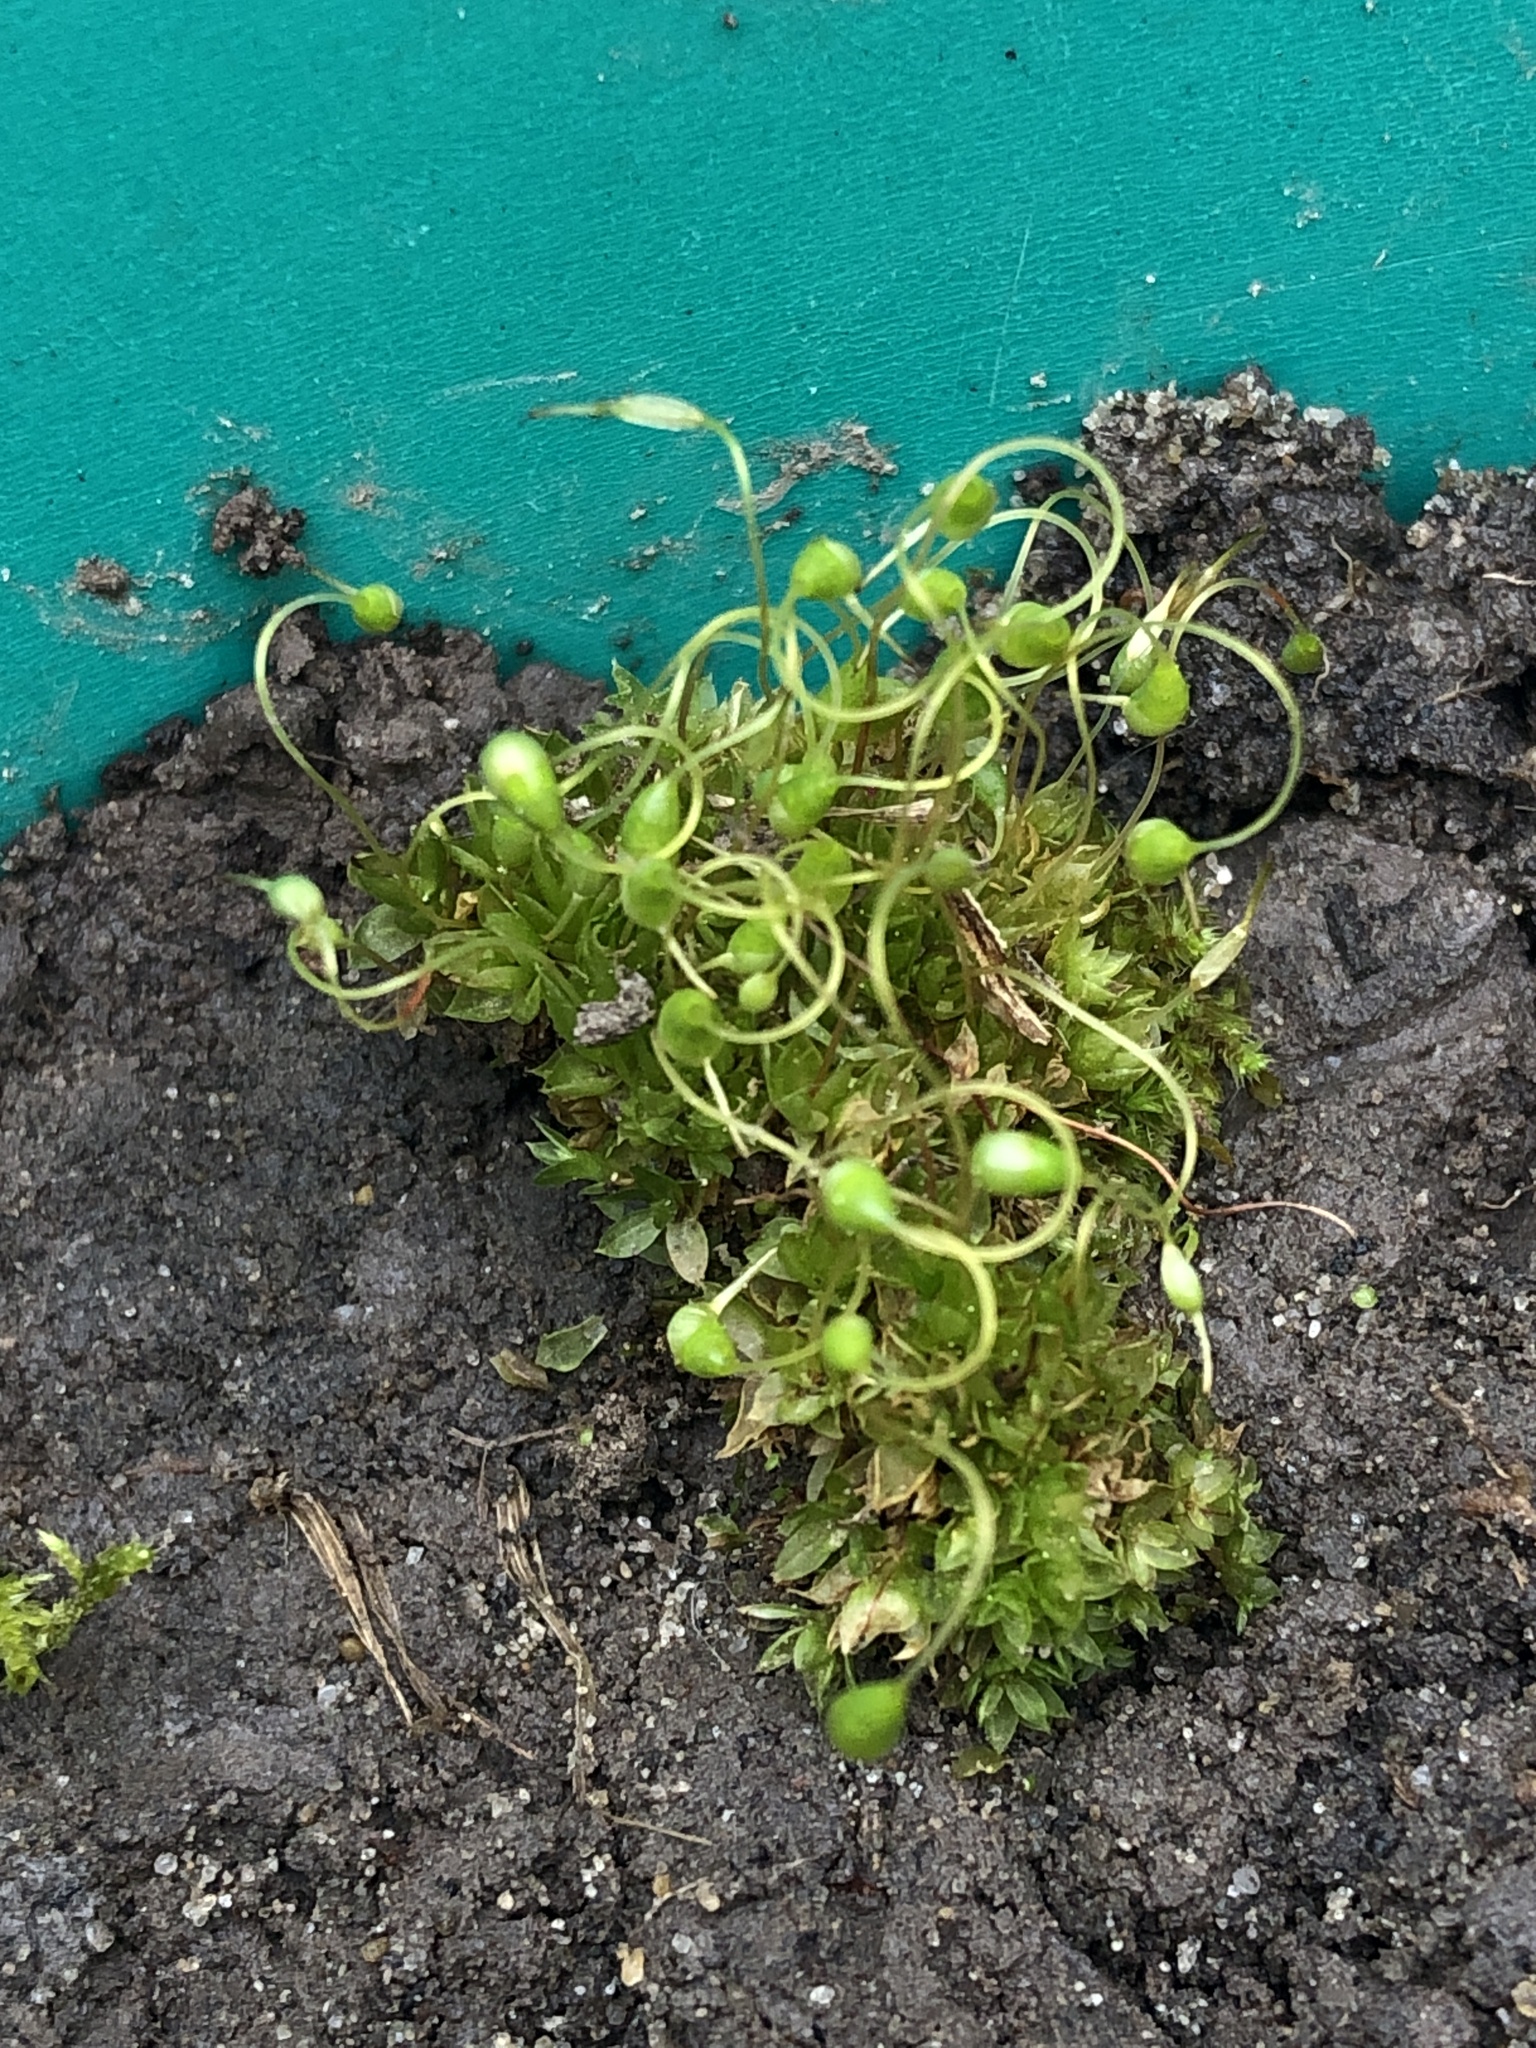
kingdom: Plantae
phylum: Bryophyta
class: Bryopsida
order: Funariales
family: Funariaceae
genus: Funaria
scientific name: Funaria hygrometrica
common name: Common cord moss
